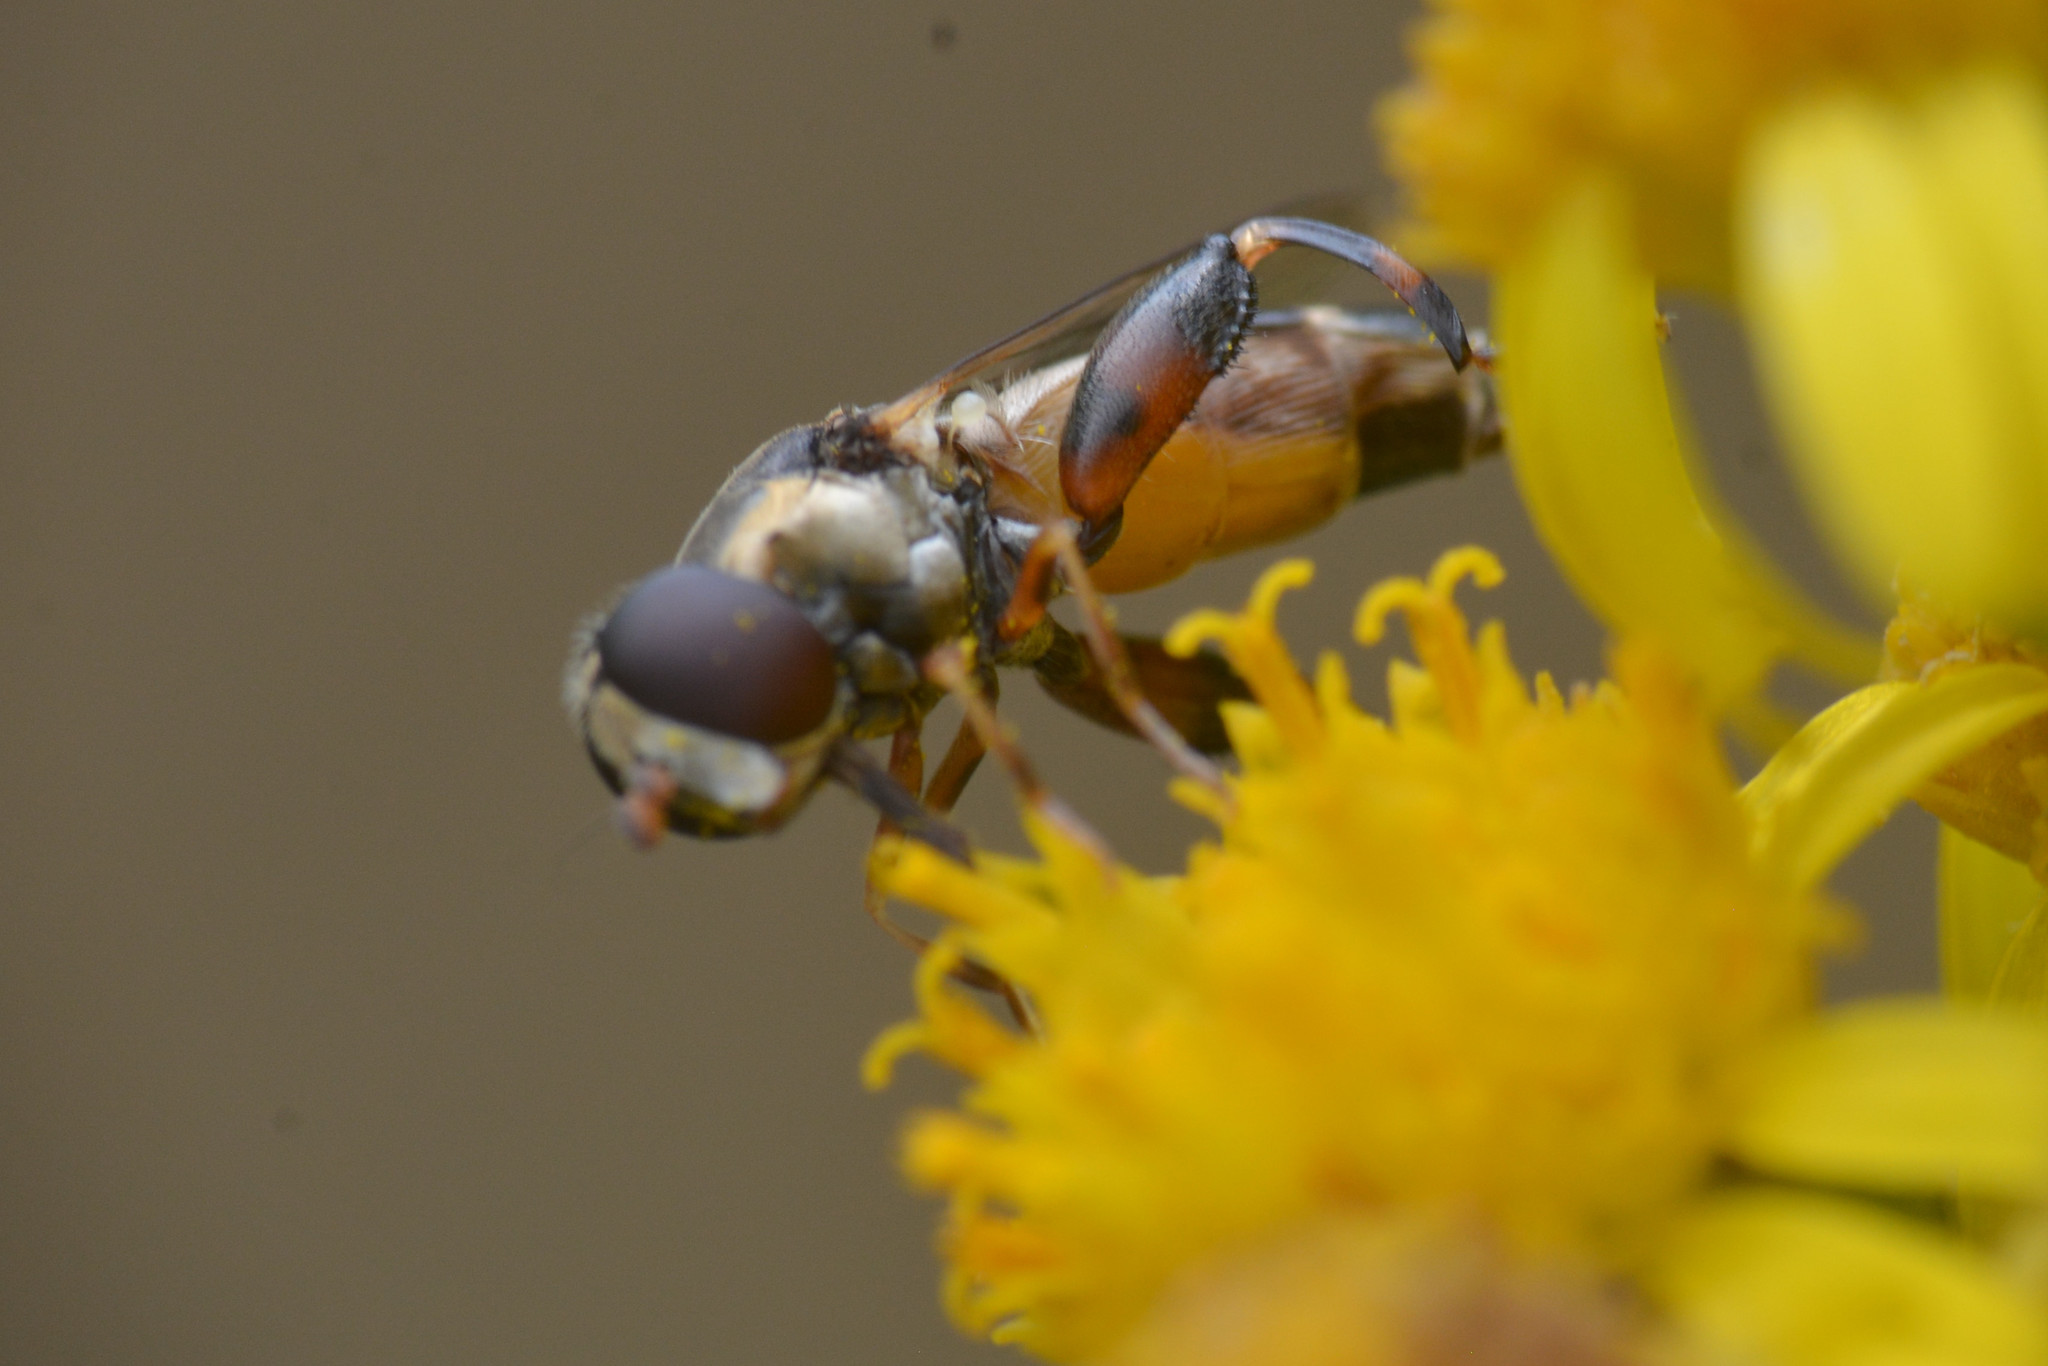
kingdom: Animalia
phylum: Arthropoda
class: Insecta
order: Diptera
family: Syrphidae
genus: Syritta
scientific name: Syritta pipiens
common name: Hover fly
